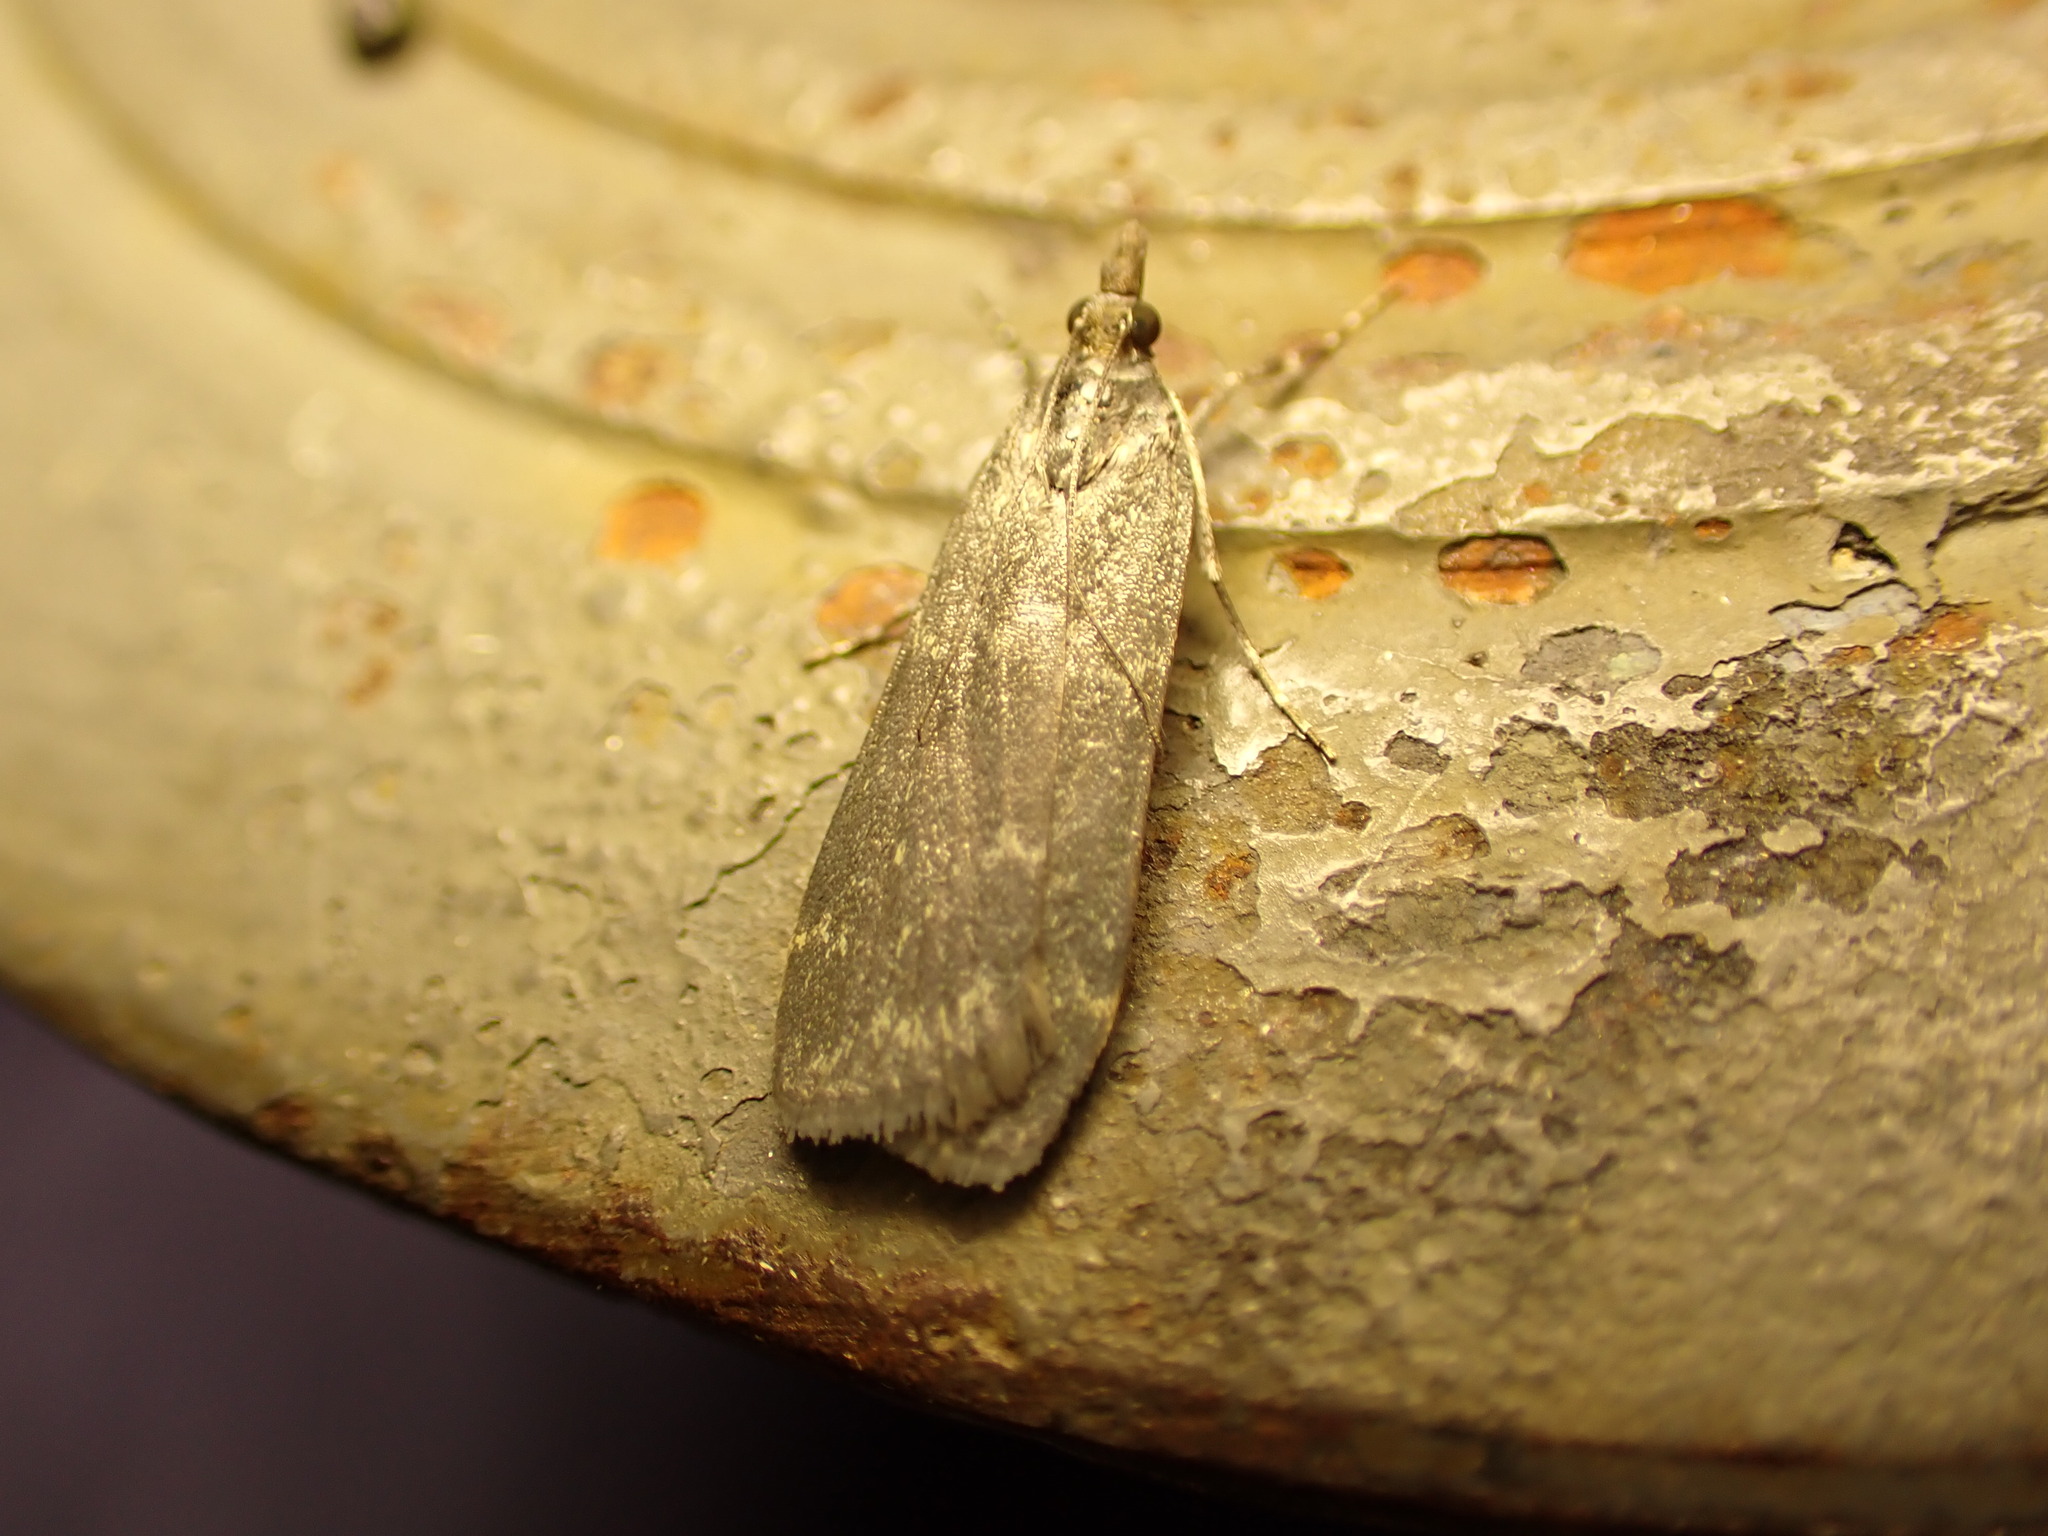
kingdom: Animalia
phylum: Arthropoda
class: Insecta
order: Lepidoptera
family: Crambidae
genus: Eudonia
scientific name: Eudonia cataxesta
